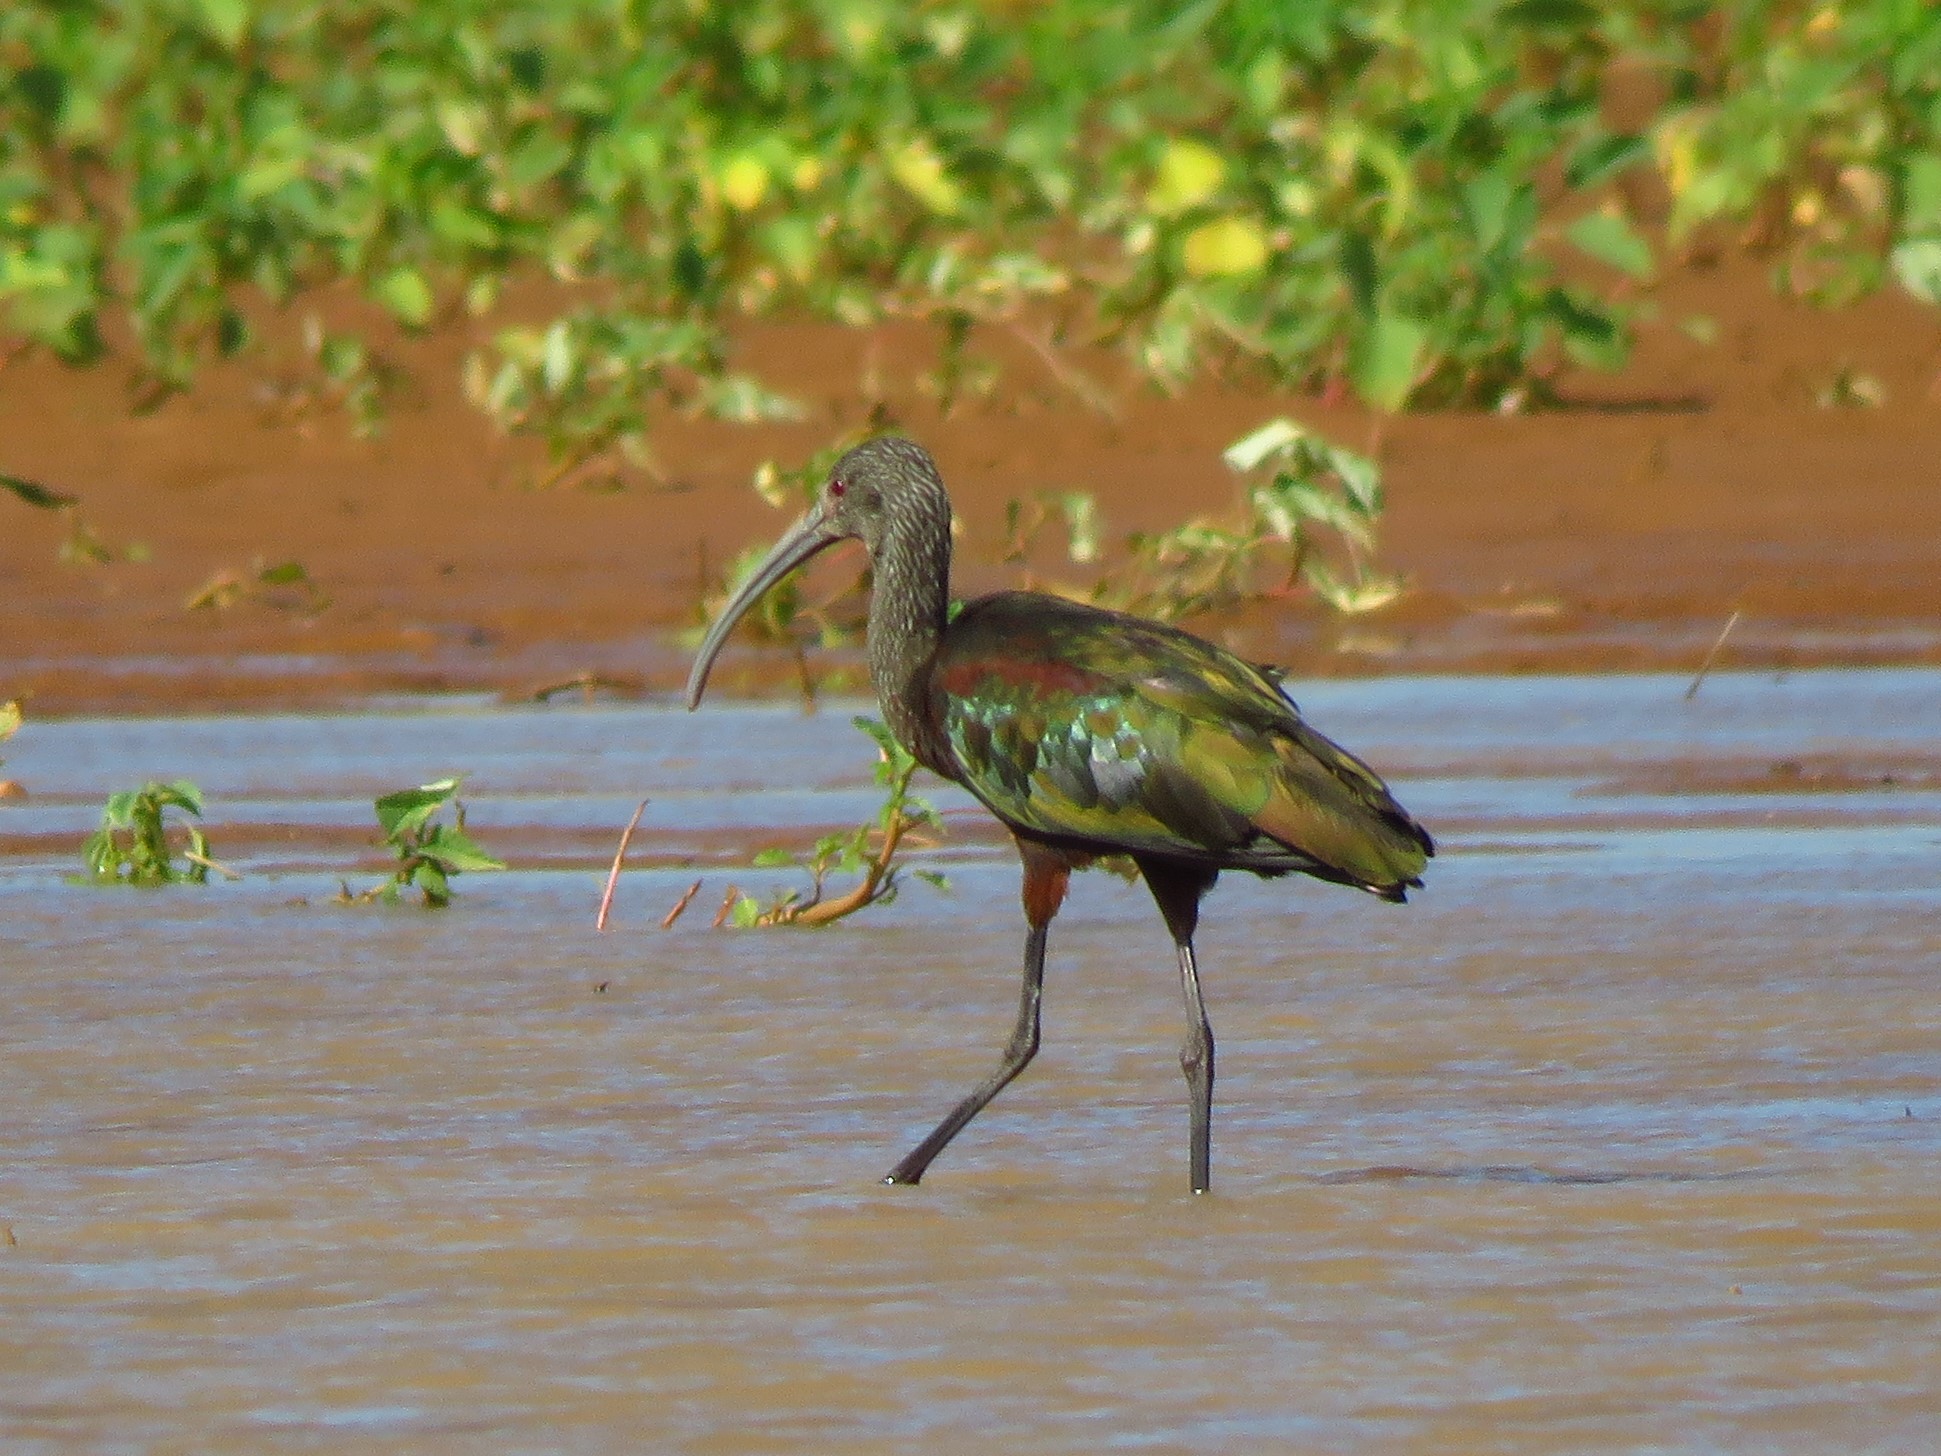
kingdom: Animalia
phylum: Chordata
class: Aves
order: Pelecaniformes
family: Threskiornithidae
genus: Plegadis
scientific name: Plegadis chihi
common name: White-faced ibis
